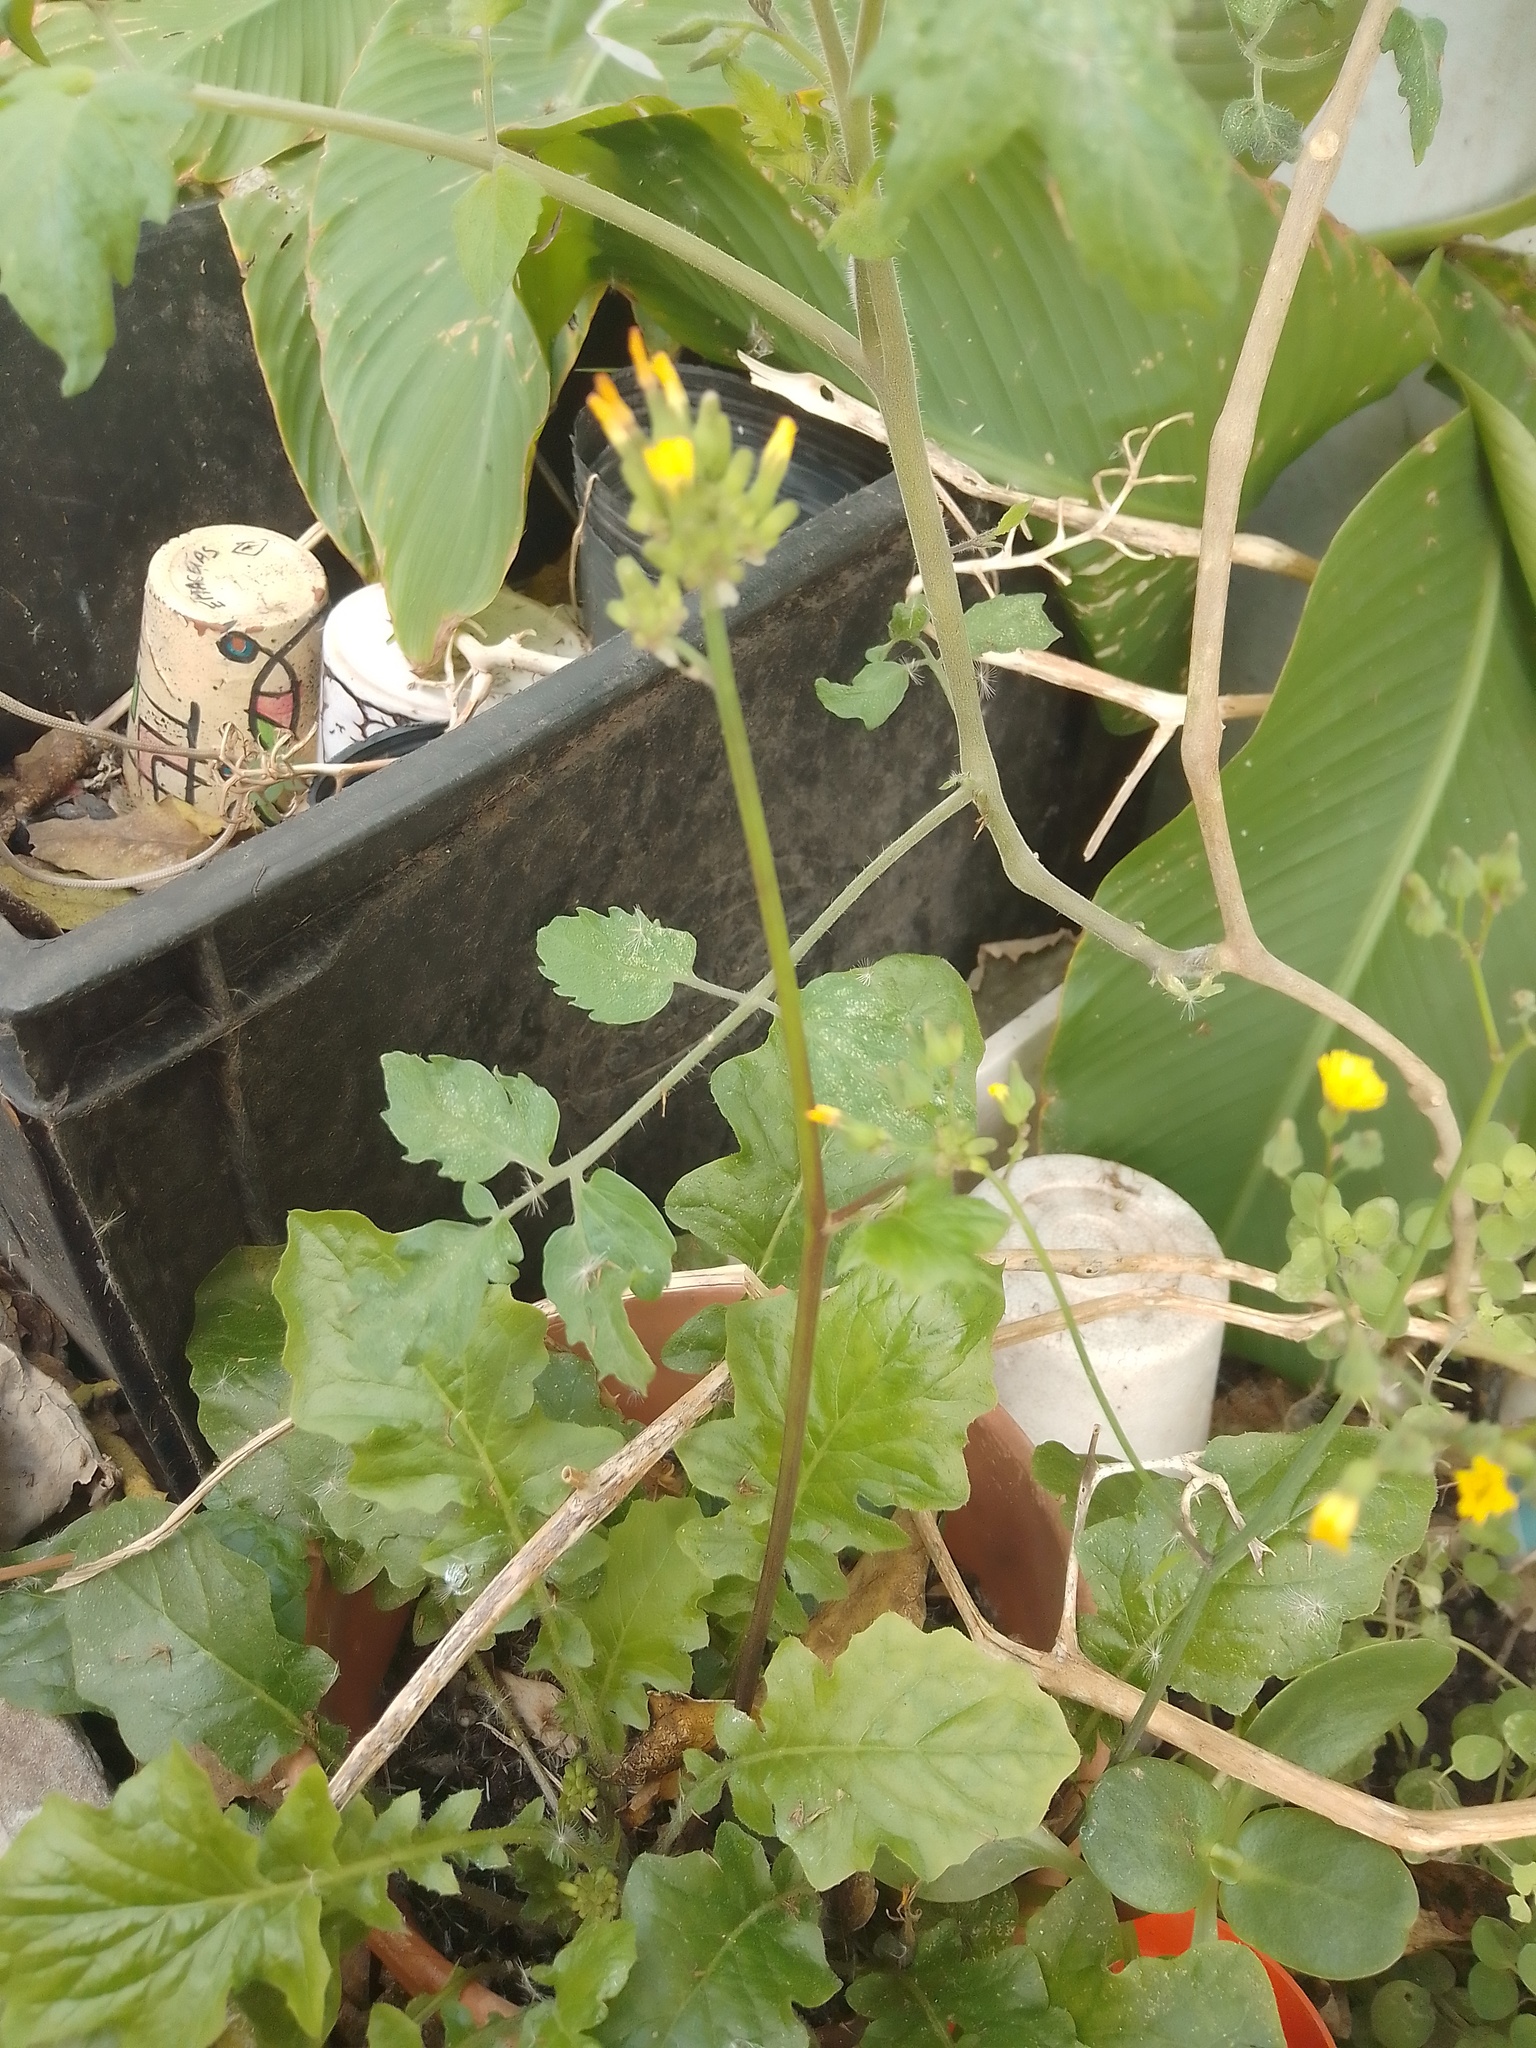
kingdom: Plantae
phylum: Tracheophyta
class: Magnoliopsida
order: Asterales
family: Asteraceae
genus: Youngia
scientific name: Youngia japonica
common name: Oriental false hawksbeard
